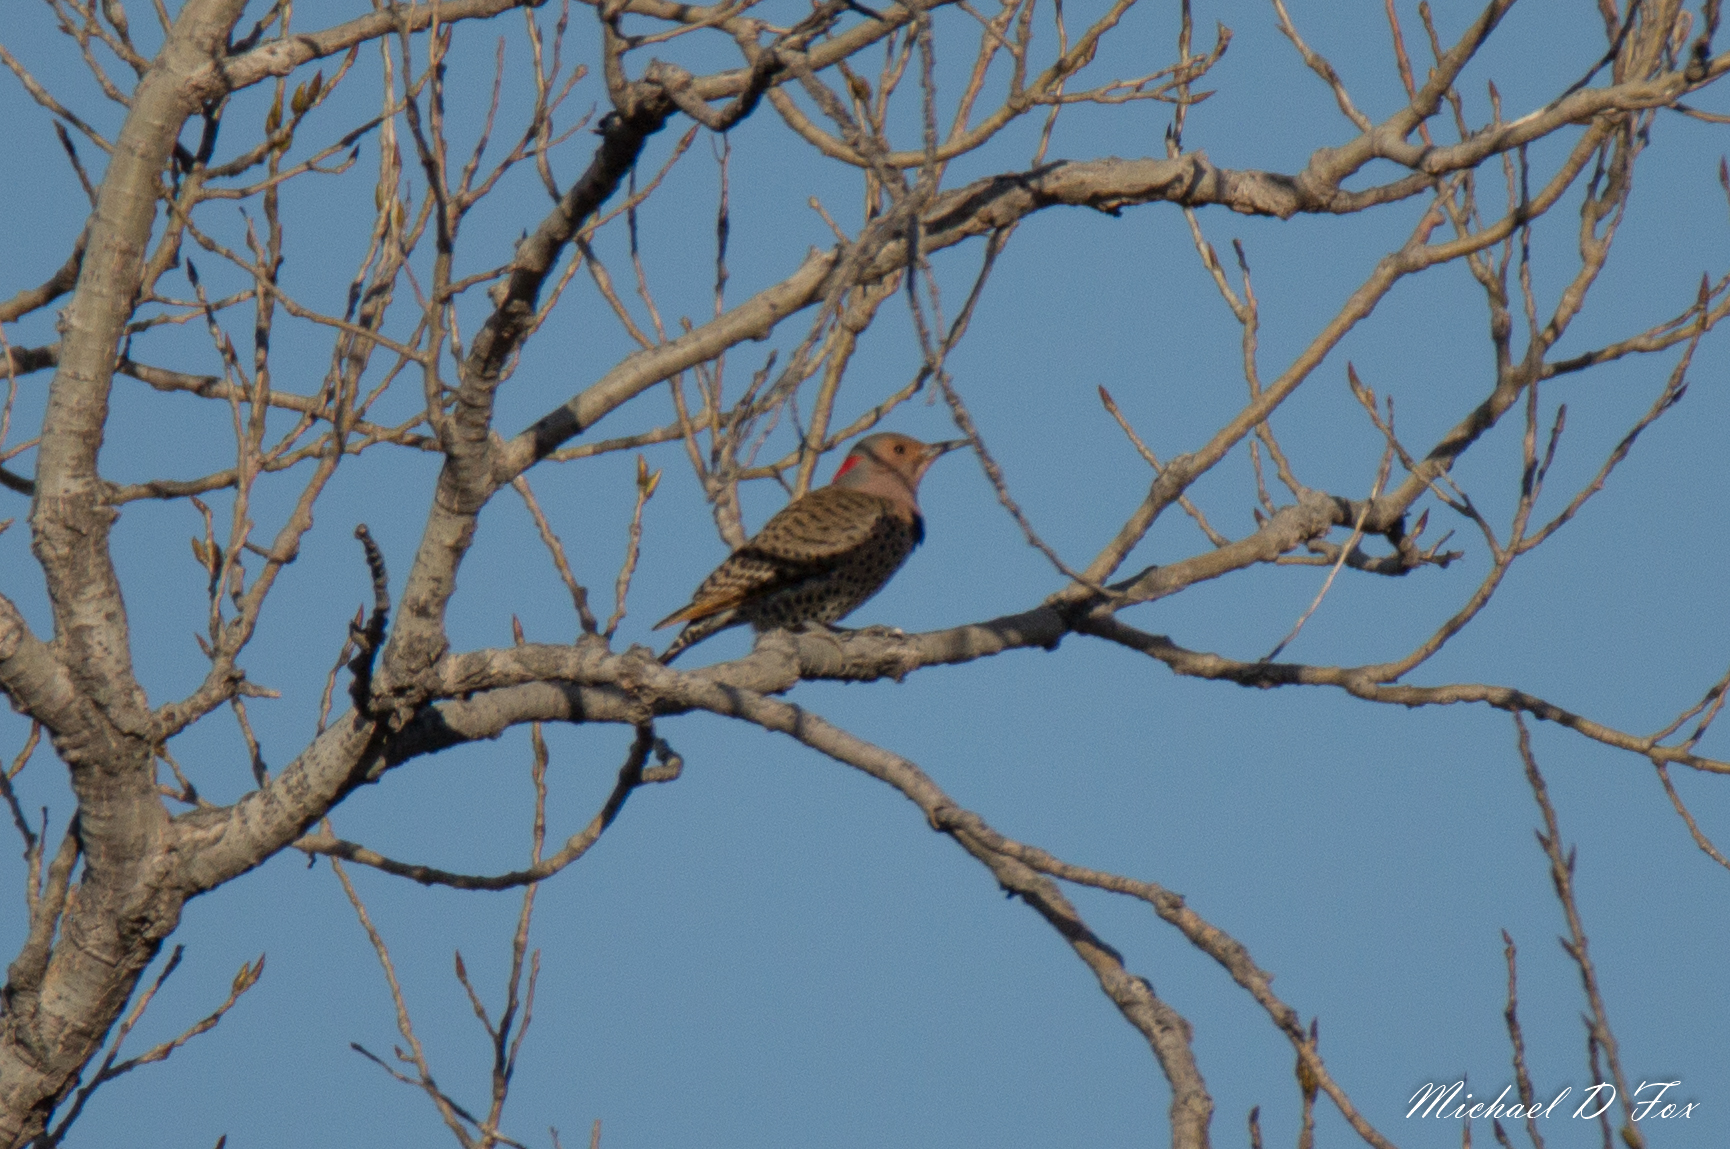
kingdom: Animalia
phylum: Chordata
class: Aves
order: Piciformes
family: Picidae
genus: Colaptes
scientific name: Colaptes auratus
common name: Northern flicker
